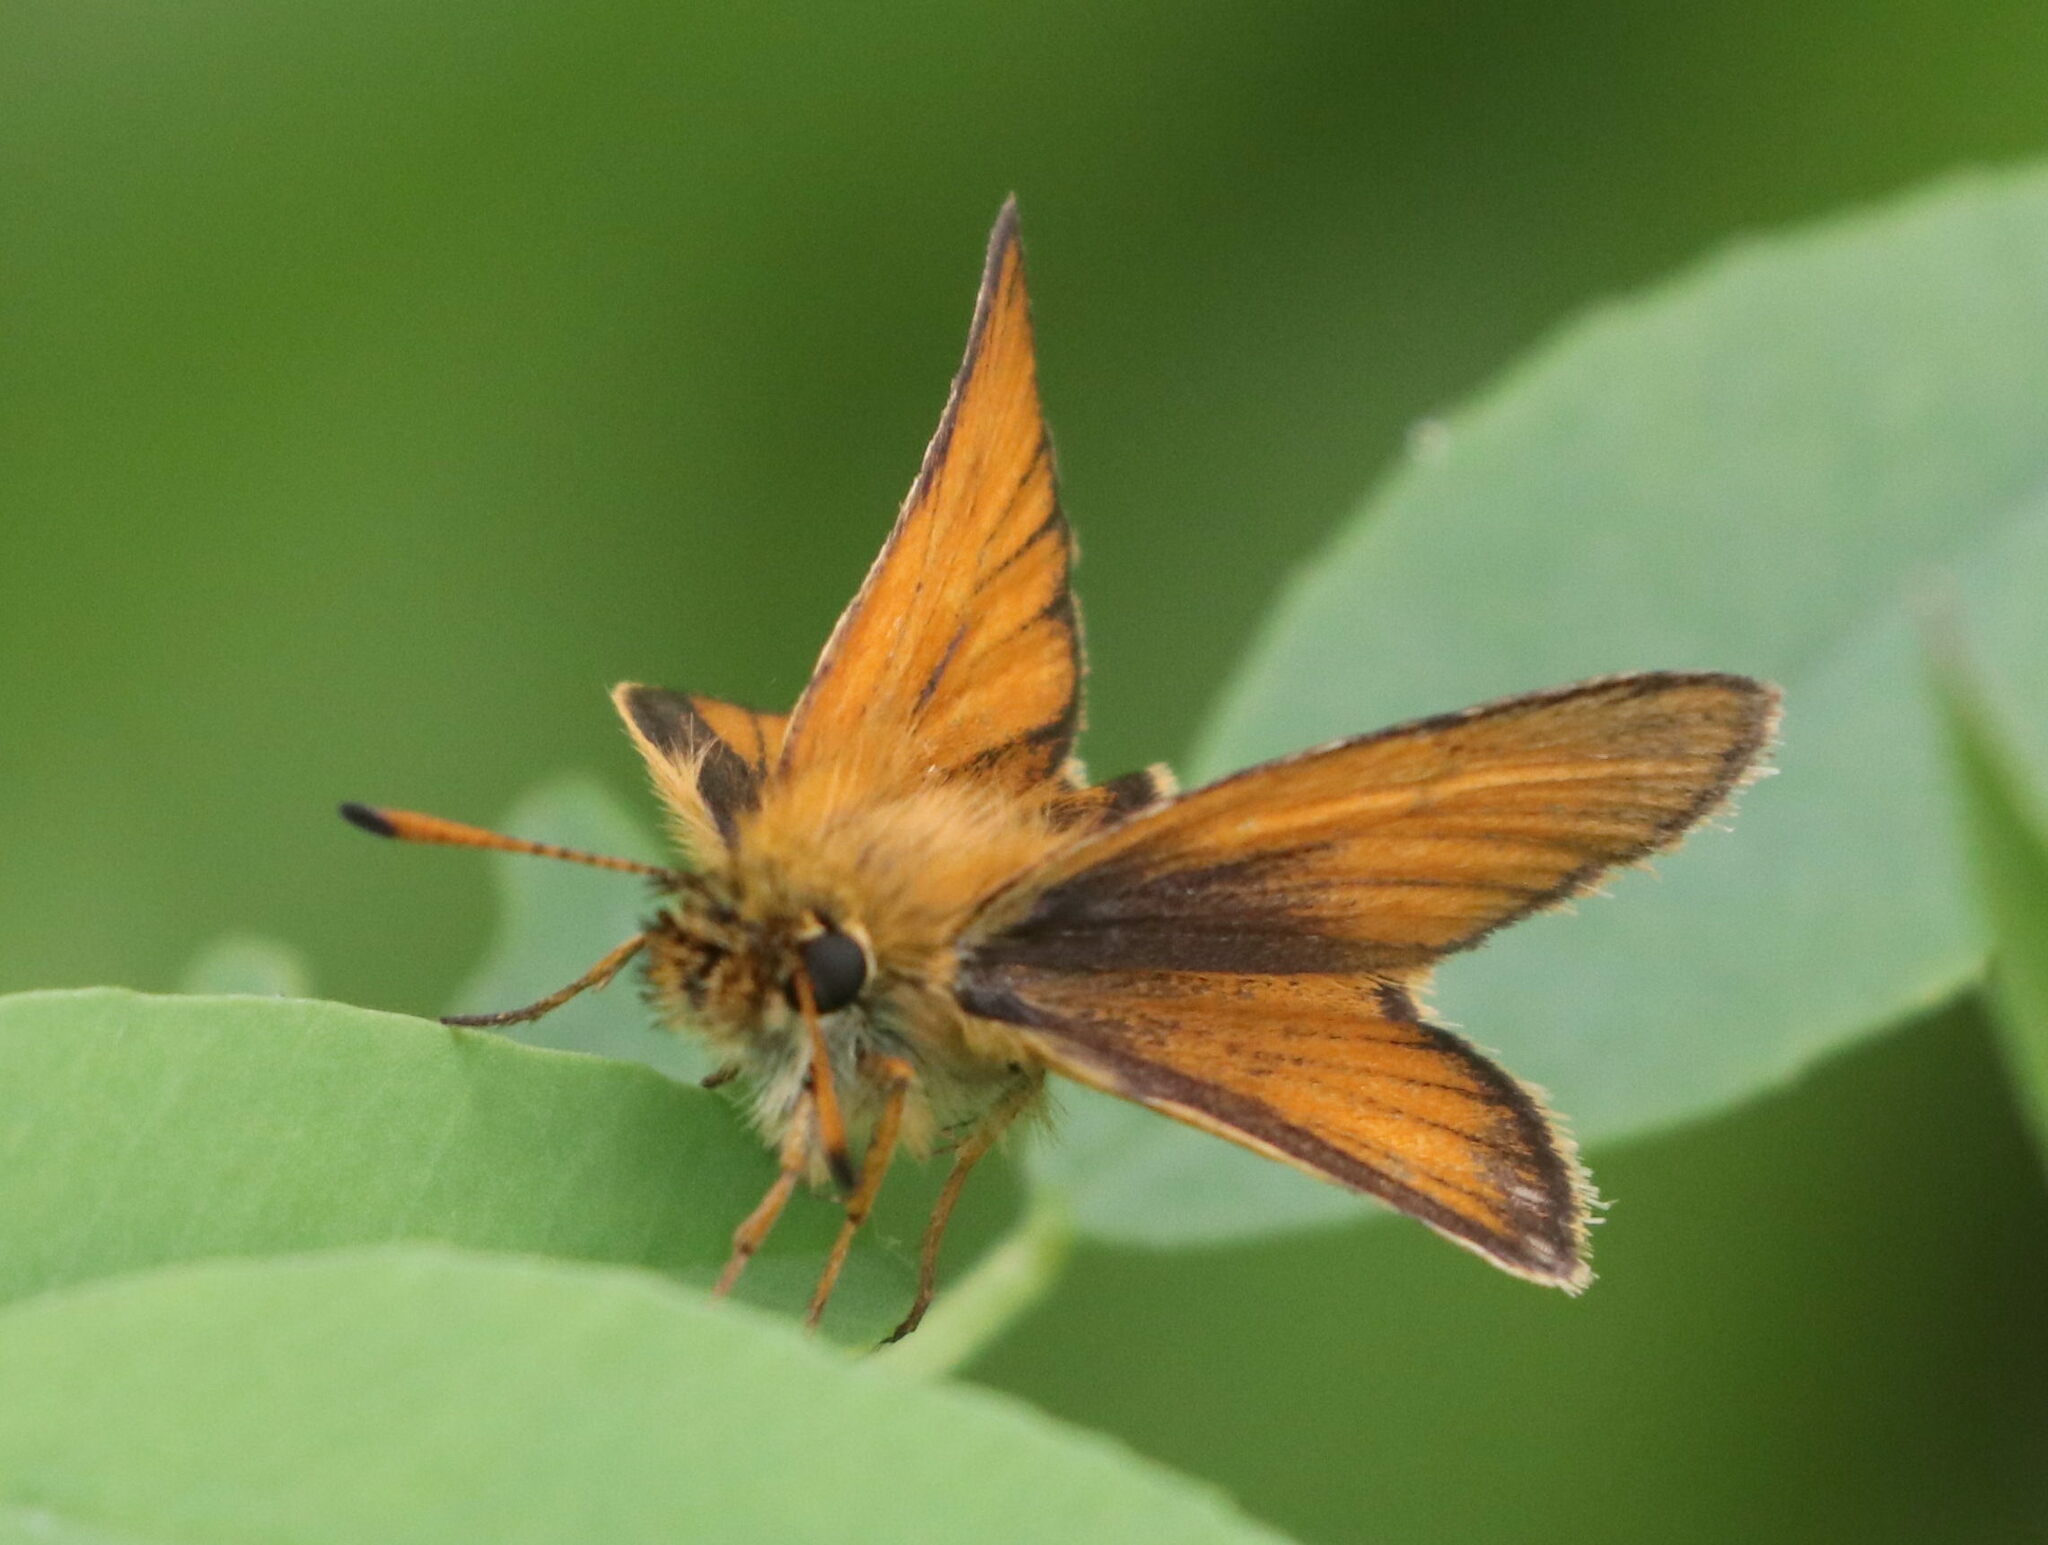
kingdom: Animalia
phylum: Arthropoda
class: Insecta
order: Lepidoptera
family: Hesperiidae
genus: Thymelicus
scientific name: Thymelicus lineola
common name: Essex skipper
